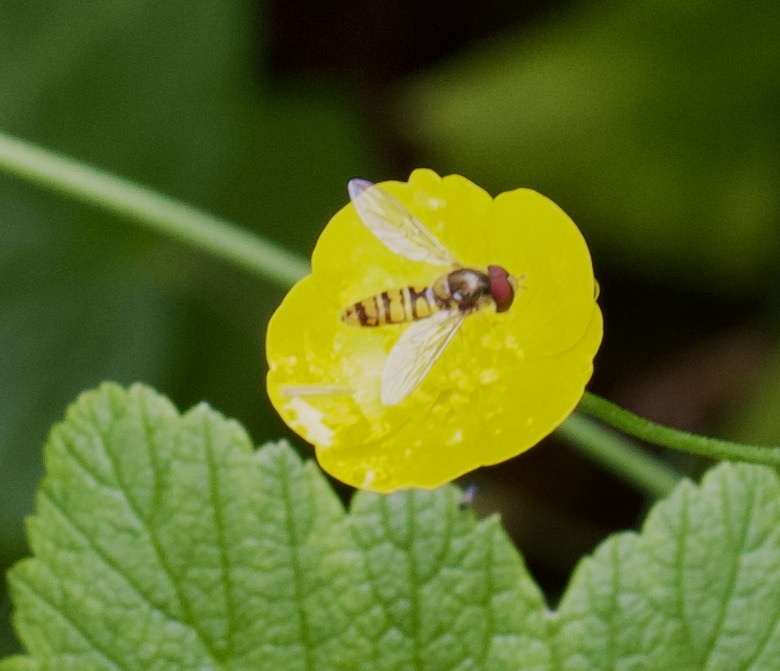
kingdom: Animalia
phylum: Arthropoda
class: Insecta
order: Diptera
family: Syrphidae
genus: Episyrphus
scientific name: Episyrphus balteatus
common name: Marmalade hoverfly
